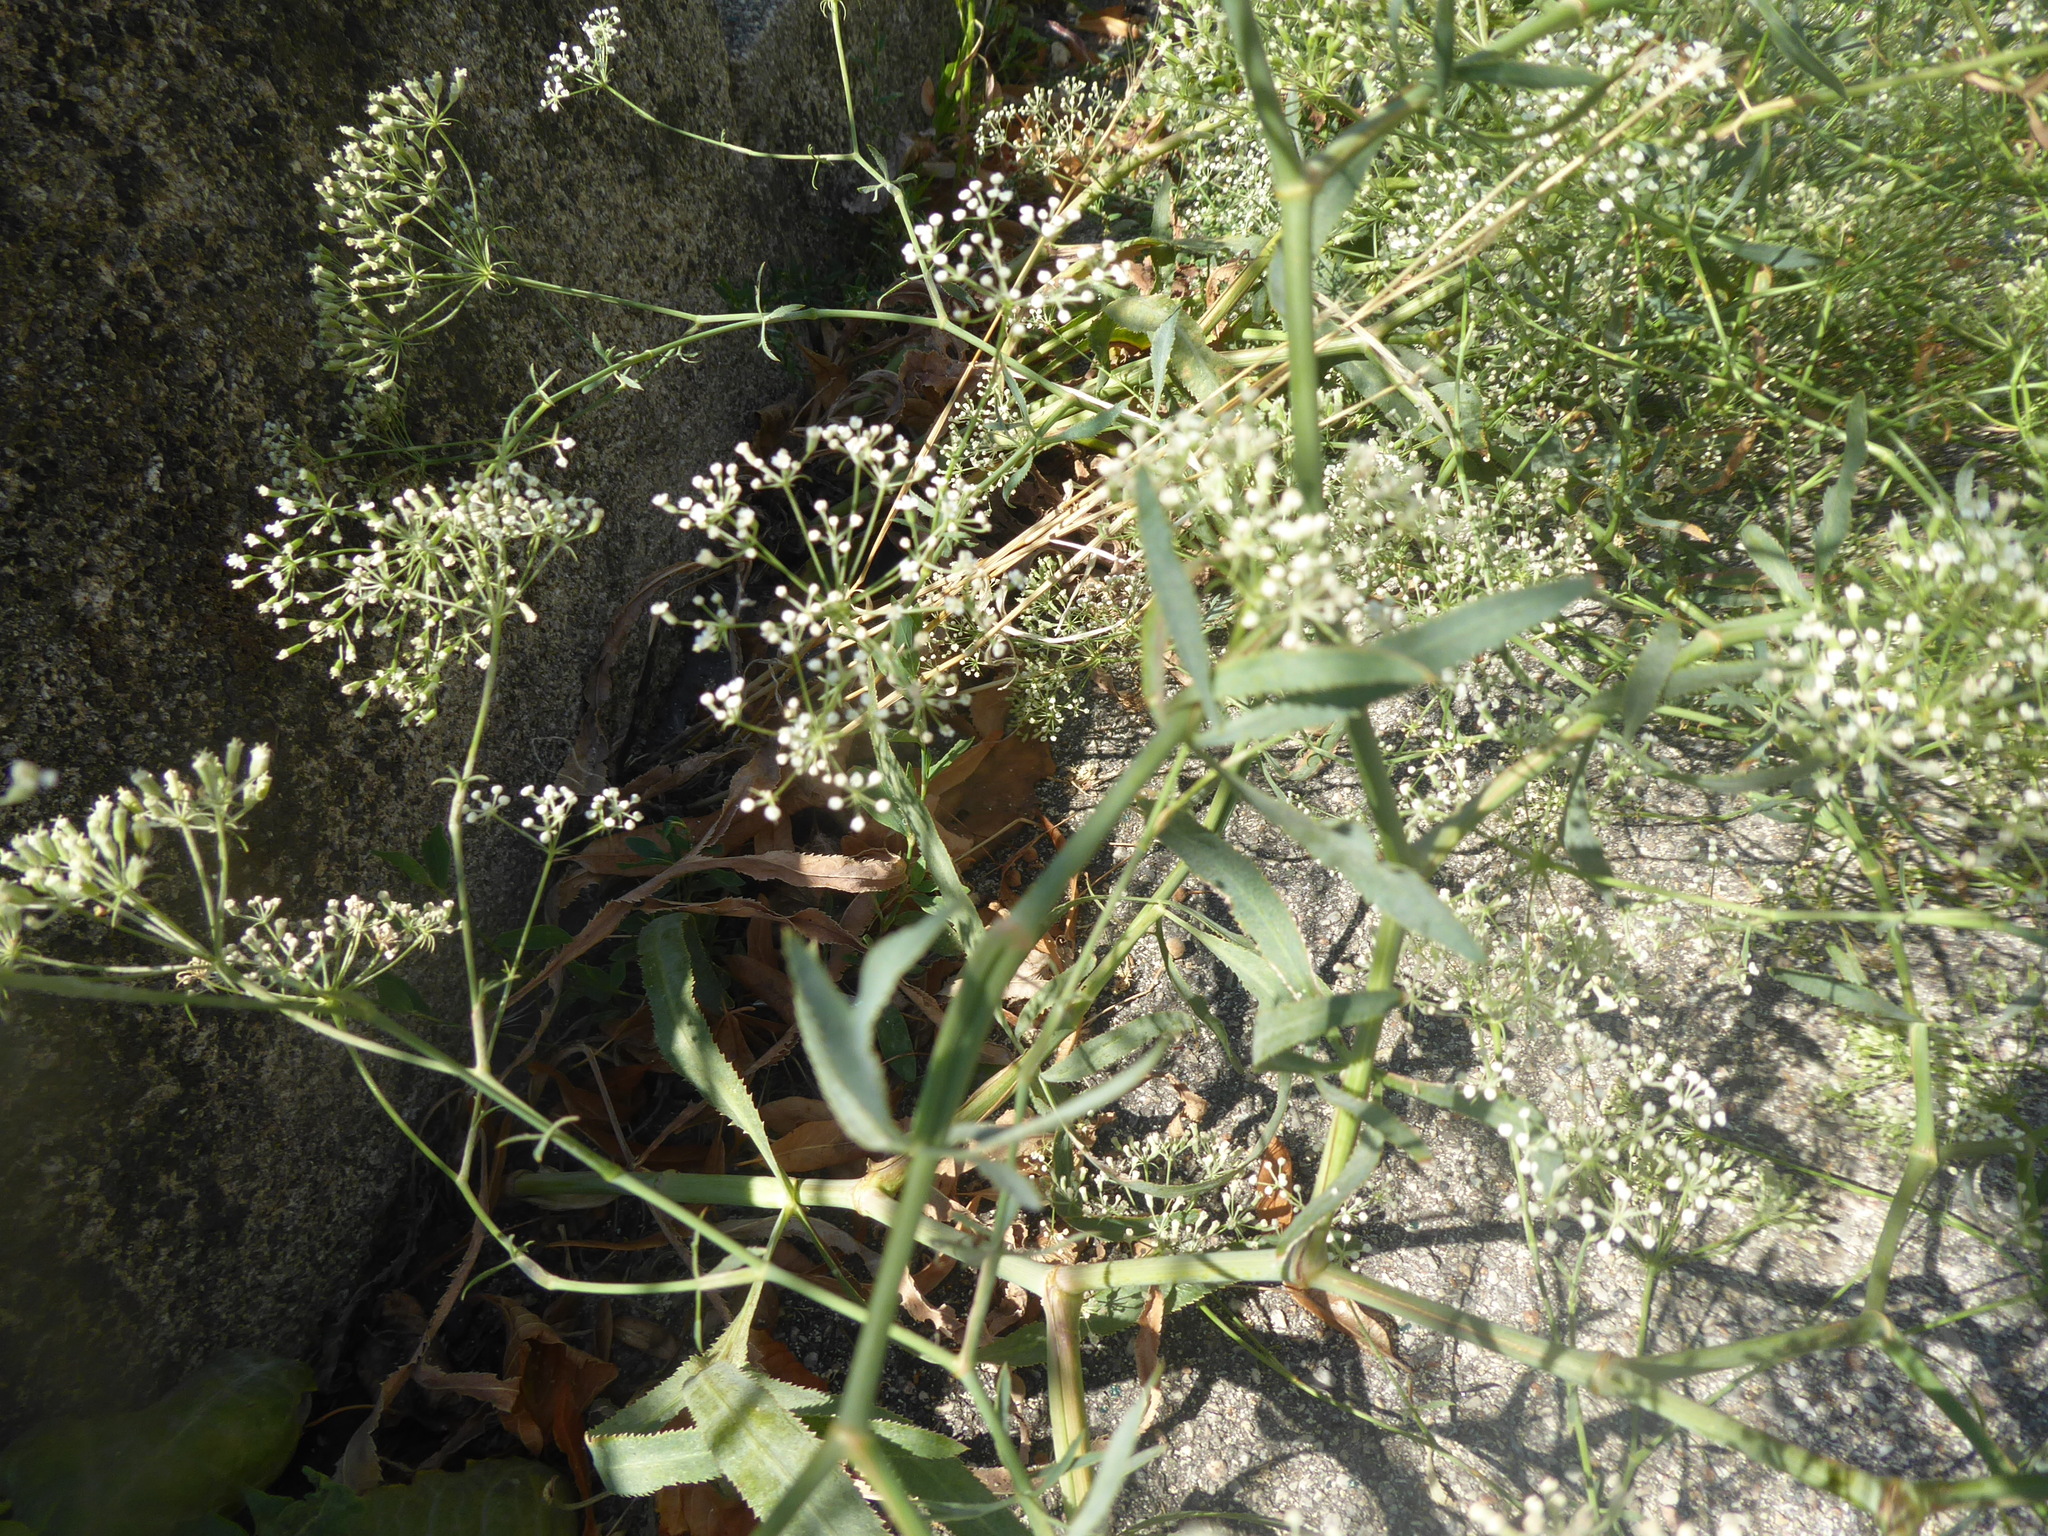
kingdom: Plantae
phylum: Tracheophyta
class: Magnoliopsida
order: Apiales
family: Apiaceae
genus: Falcaria
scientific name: Falcaria vulgaris
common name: Longleaf
